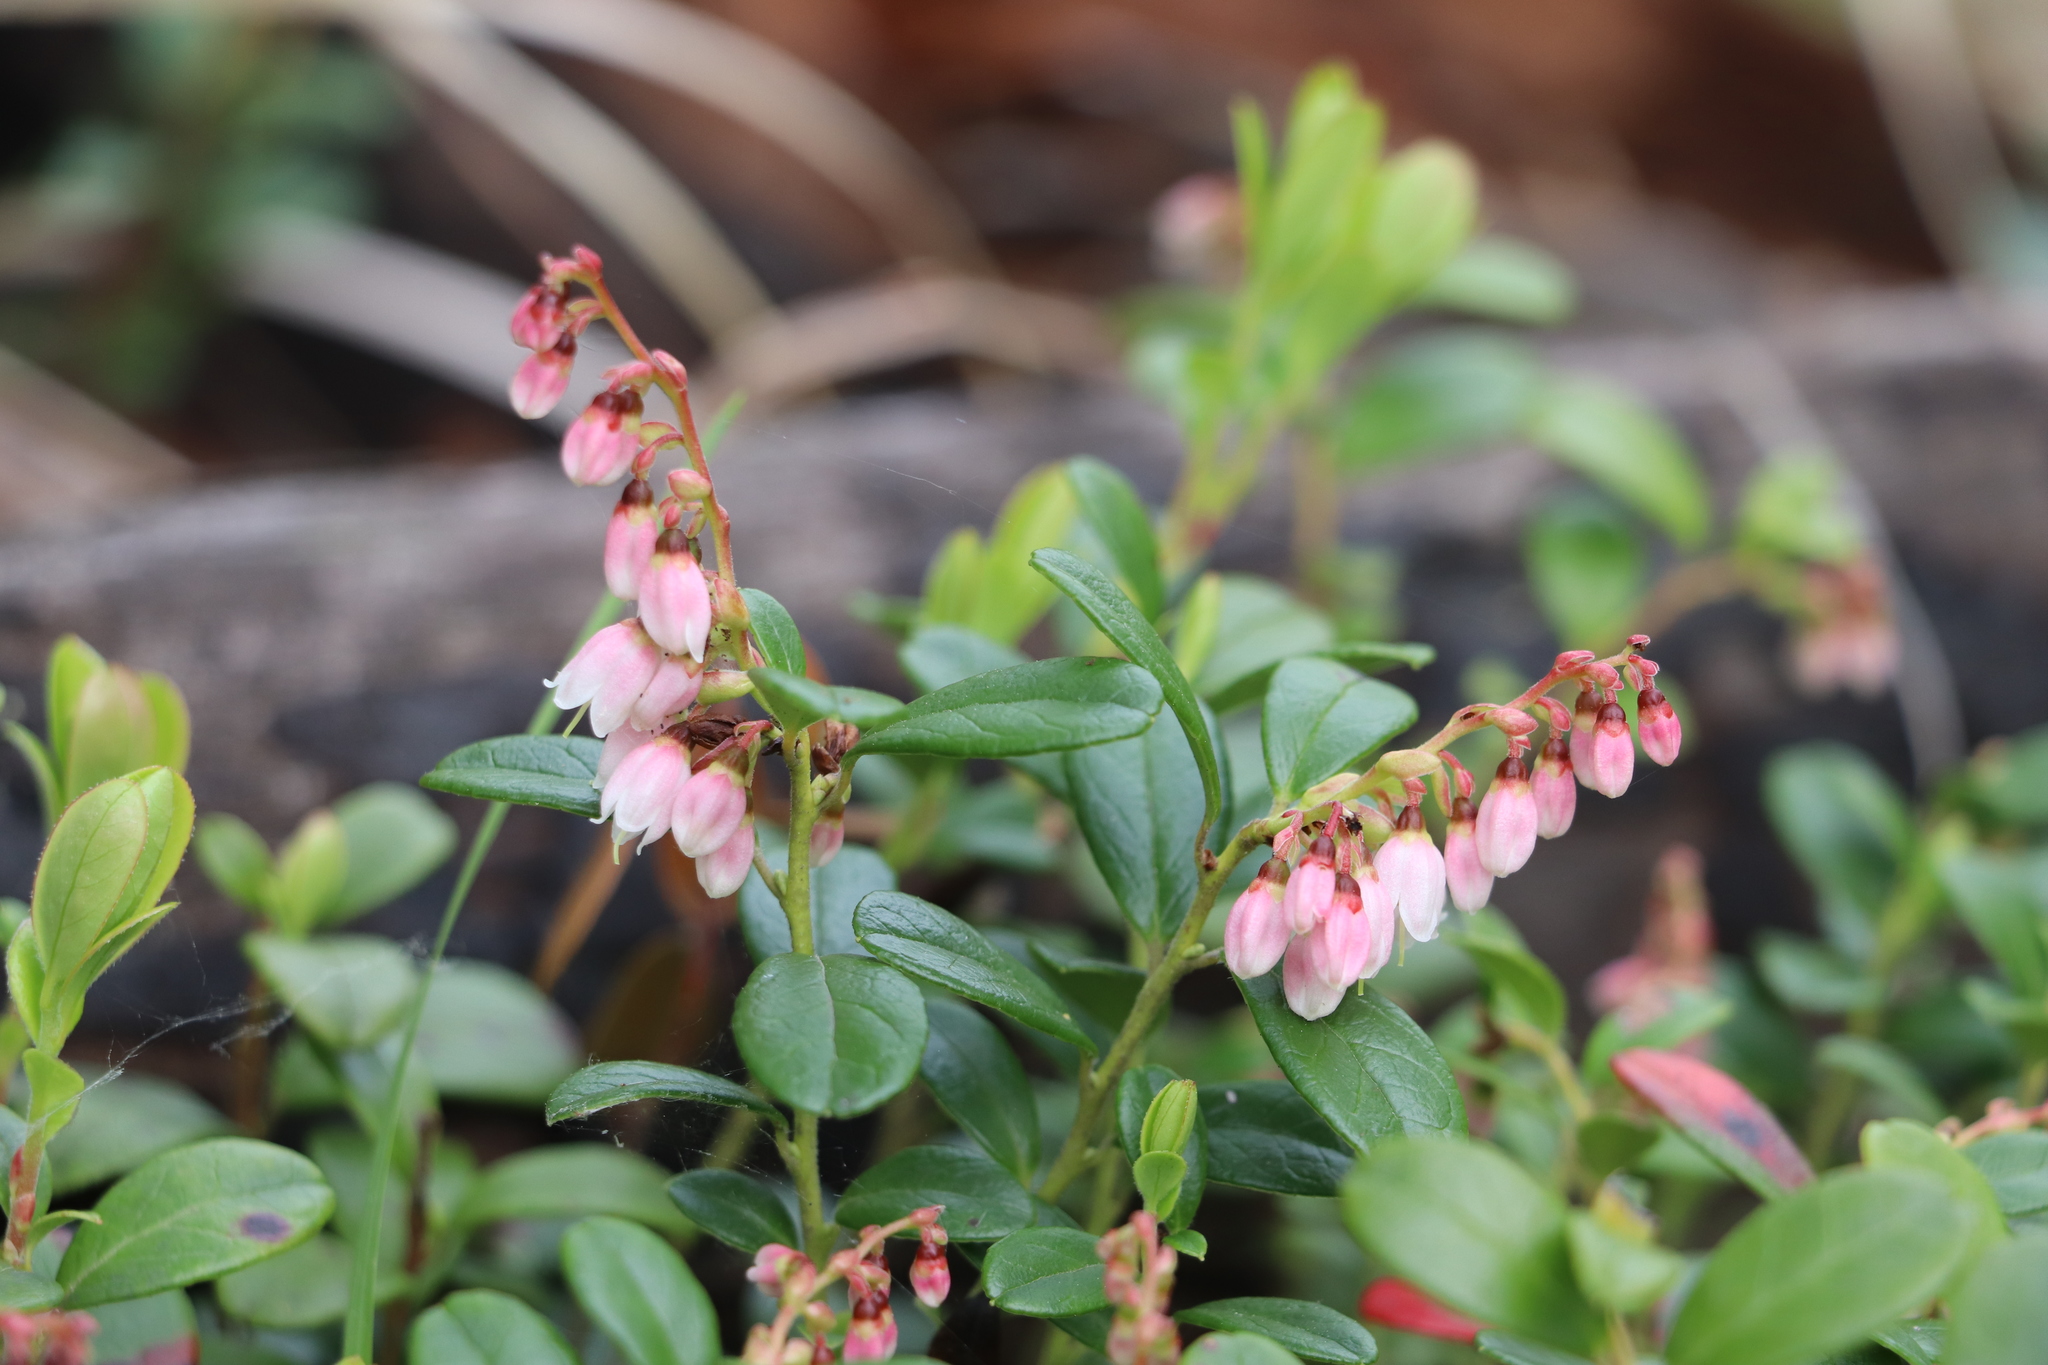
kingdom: Plantae
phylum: Tracheophyta
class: Magnoliopsida
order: Ericales
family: Ericaceae
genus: Vaccinium
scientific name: Vaccinium vitis-idaea
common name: Cowberry
